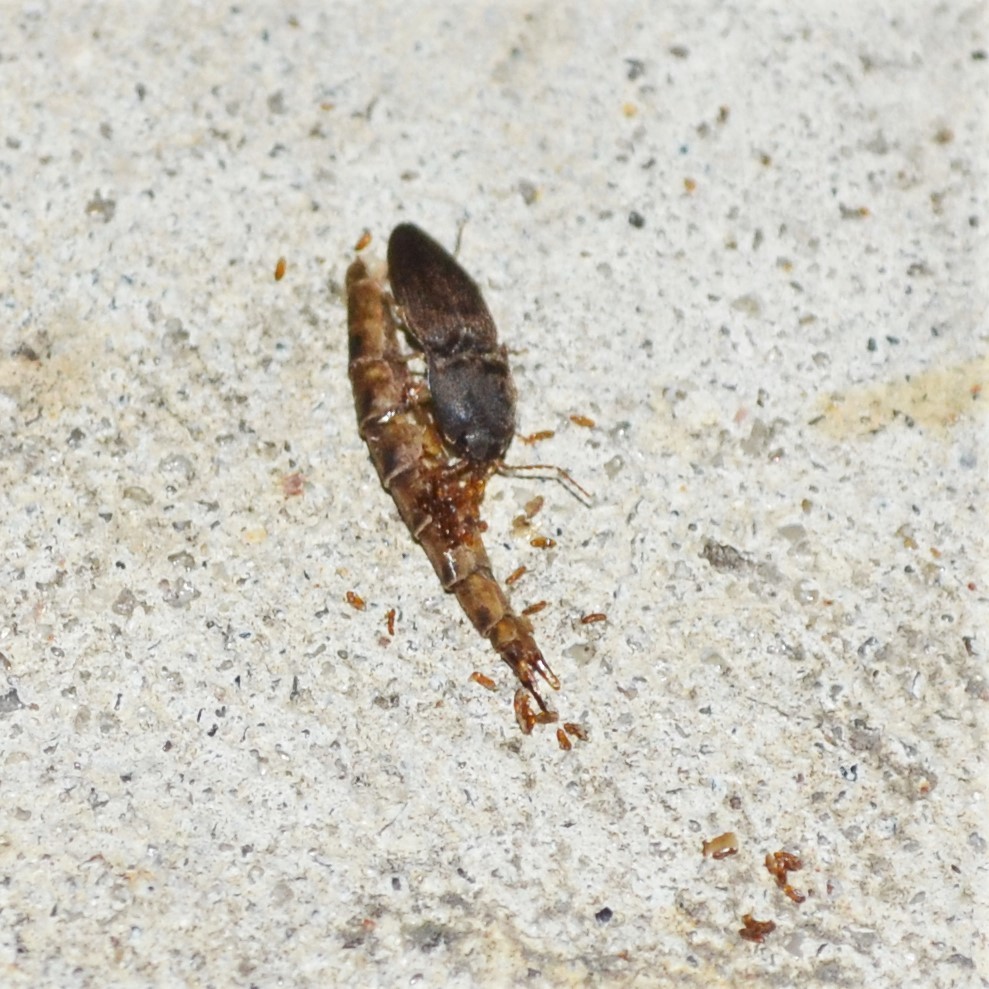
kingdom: Animalia
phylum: Arthropoda
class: Insecta
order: Coleoptera
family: Elateridae
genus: Heteroderes
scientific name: Heteroderes amplicollis
